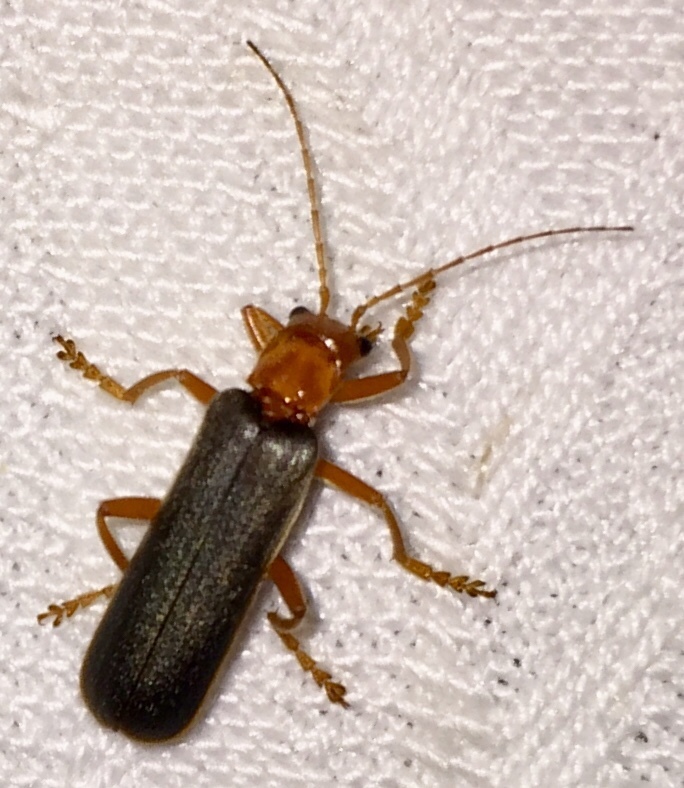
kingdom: Animalia
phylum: Arthropoda
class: Insecta
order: Coleoptera
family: Cantharidae
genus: Pacificanthia
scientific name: Pacificanthia rotundicollis
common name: Brown leatherwing beetle
